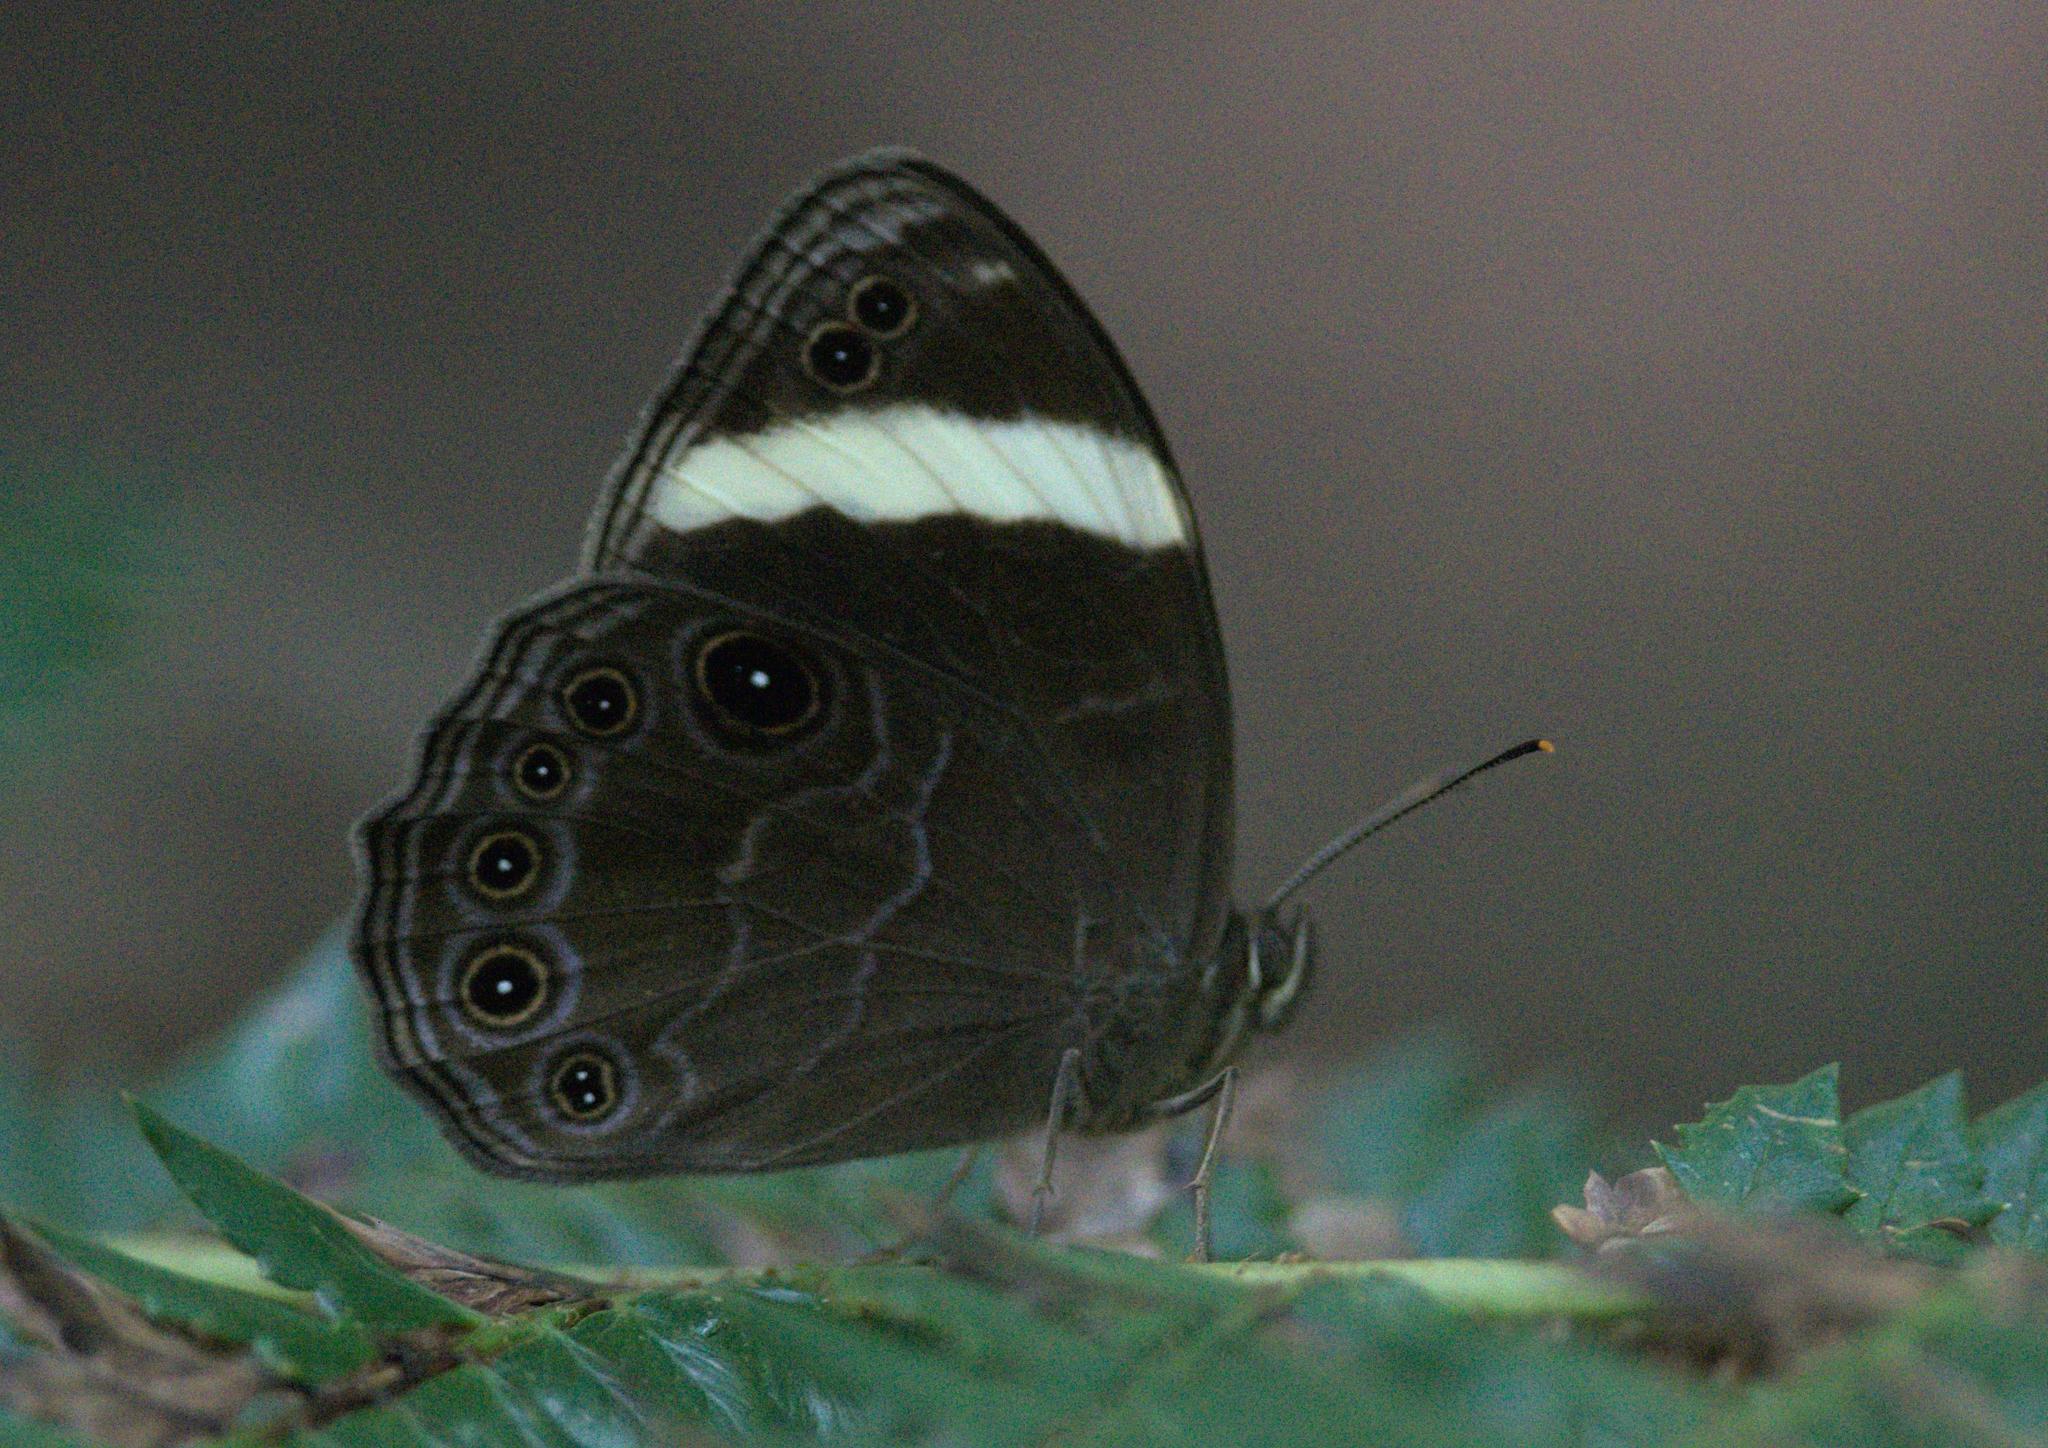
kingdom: Animalia
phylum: Arthropoda
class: Insecta
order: Lepidoptera
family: Nymphalidae
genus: Lethe
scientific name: Lethe verma
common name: Straight-banded treebrown
